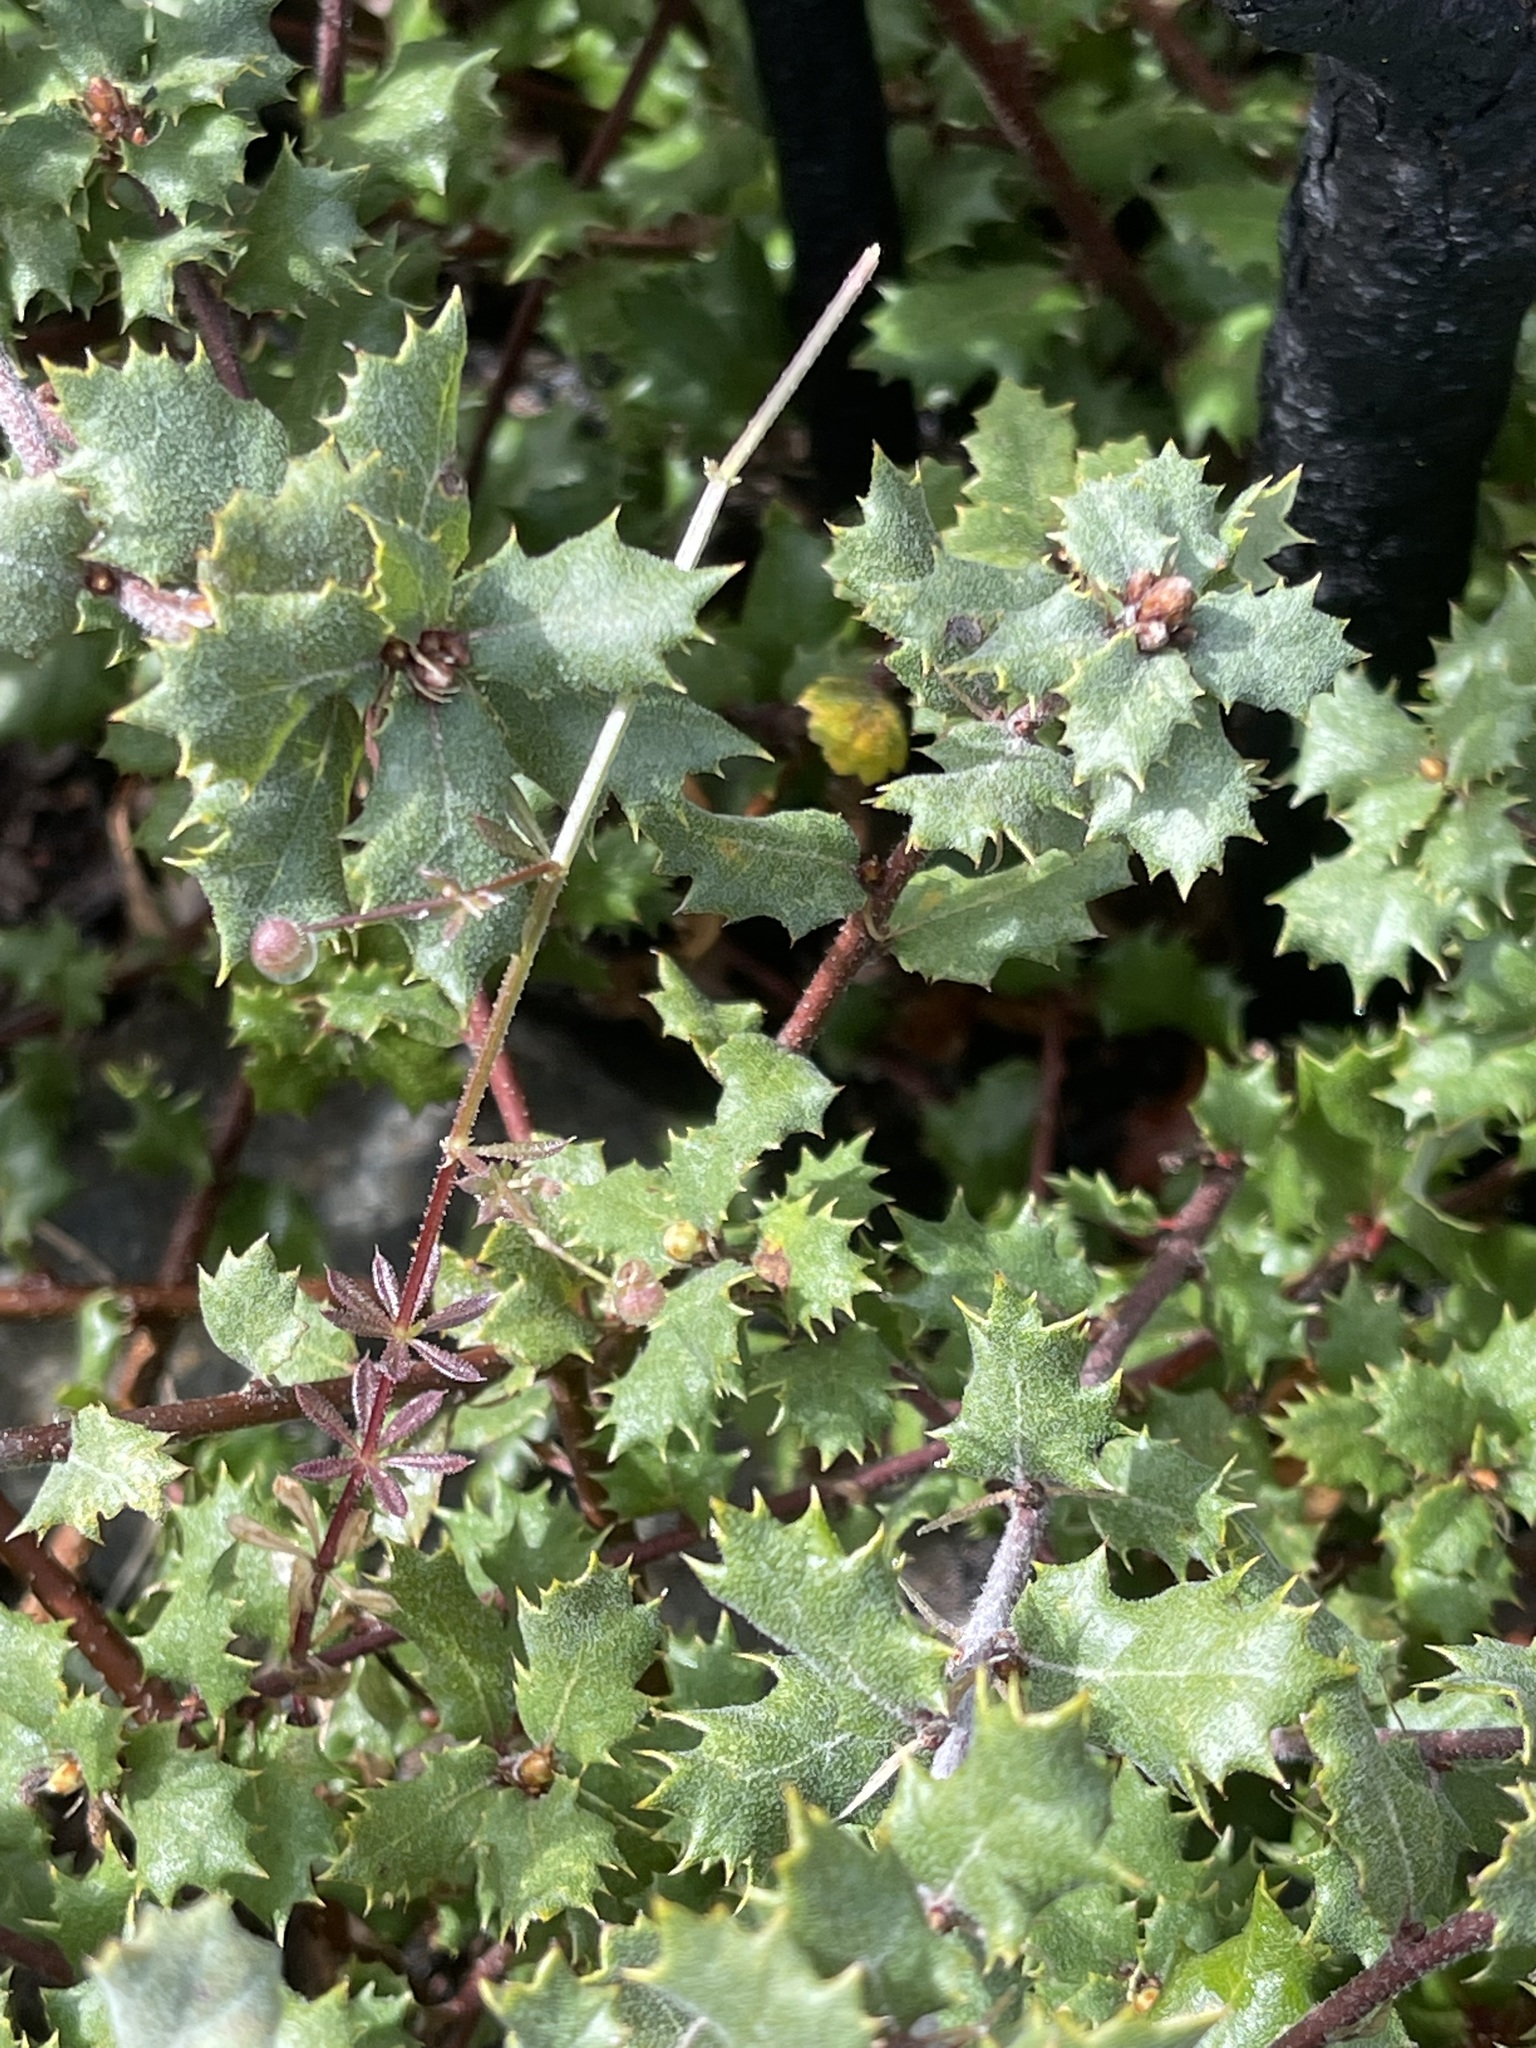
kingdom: Plantae
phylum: Tracheophyta
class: Magnoliopsida
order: Fagales
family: Fagaceae
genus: Quercus
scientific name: Quercus durata
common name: Leather oak
